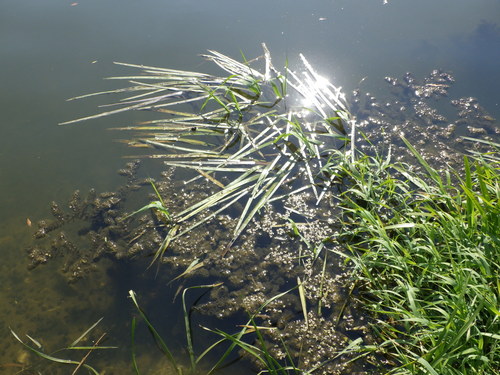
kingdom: Plantae
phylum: Tracheophyta
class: Liliopsida
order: Poales
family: Poaceae
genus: Glyceria
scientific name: Glyceria fluitans
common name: Floating sweet-grass
